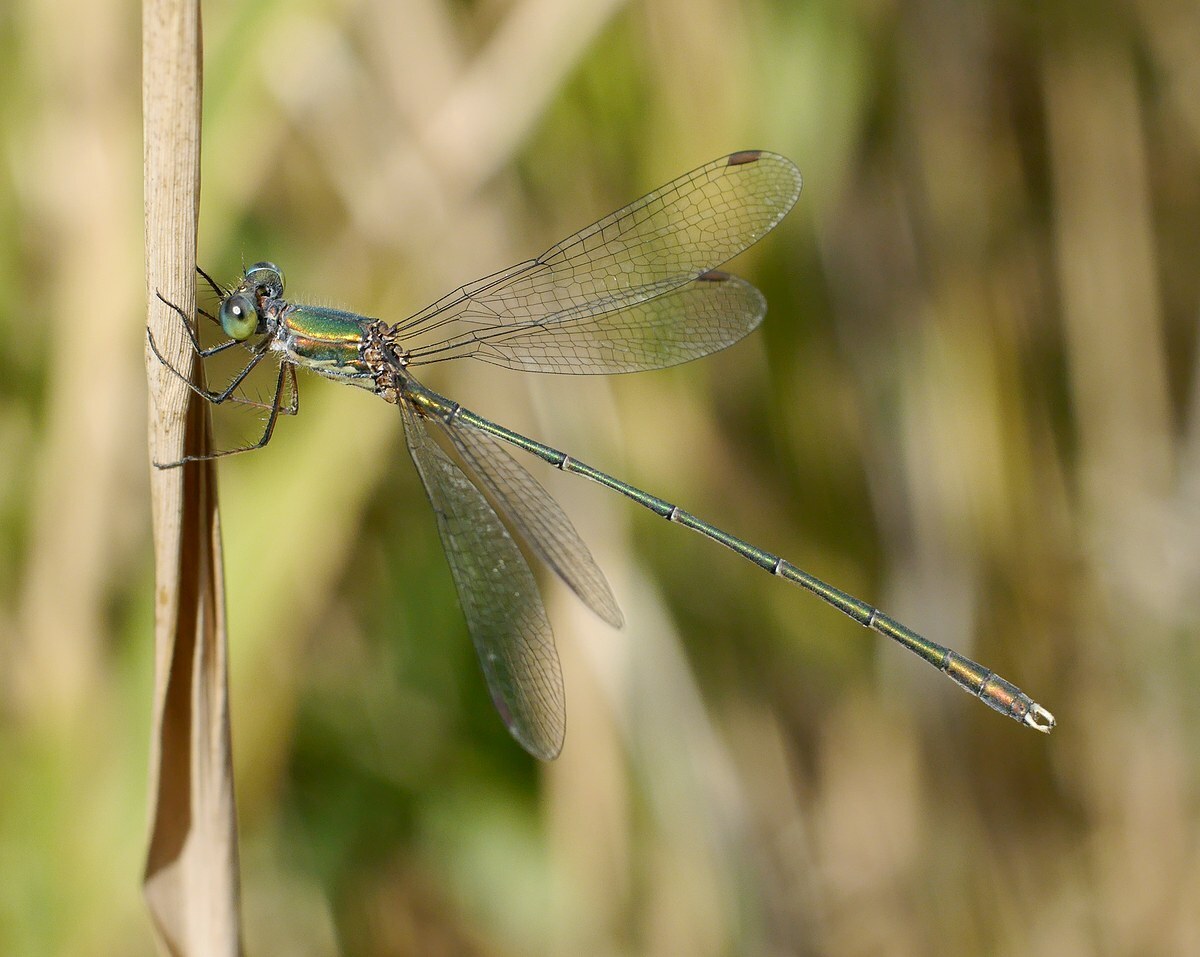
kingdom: Animalia
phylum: Arthropoda
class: Insecta
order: Odonata
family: Lestidae
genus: Chalcolestes
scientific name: Chalcolestes parvidens
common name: Eastern willow spreadwing
